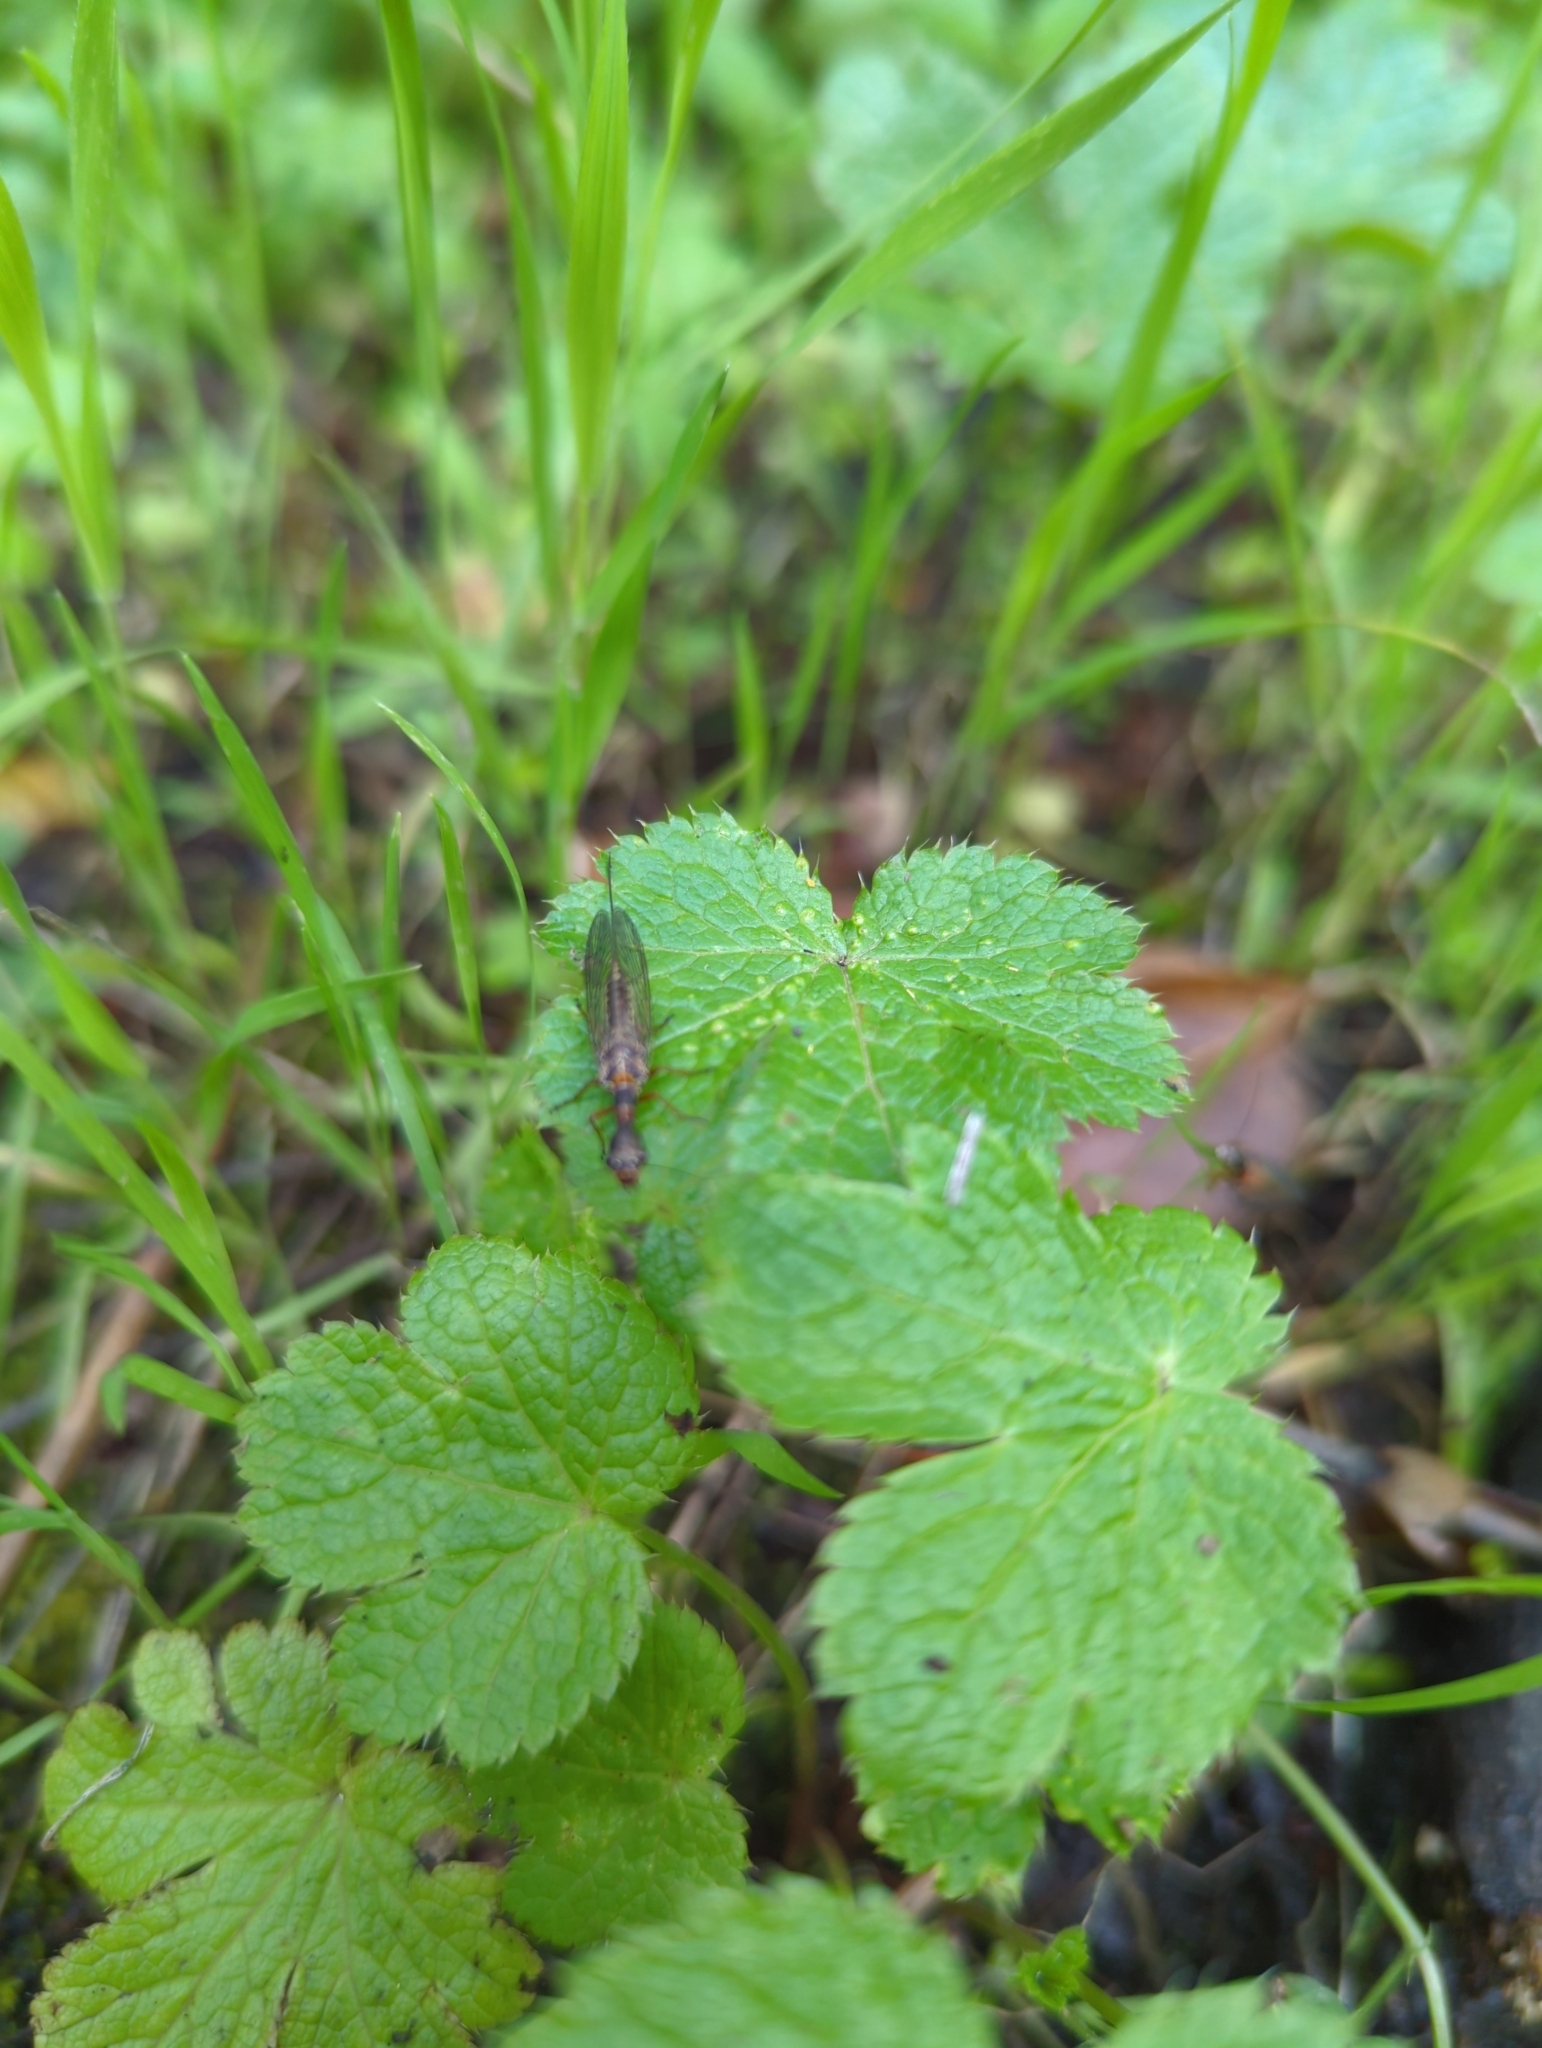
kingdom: Plantae
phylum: Tracheophyta
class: Magnoliopsida
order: Apiales
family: Apiaceae
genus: Sanicula
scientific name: Sanicula crassicaulis
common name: Western snakeroot
